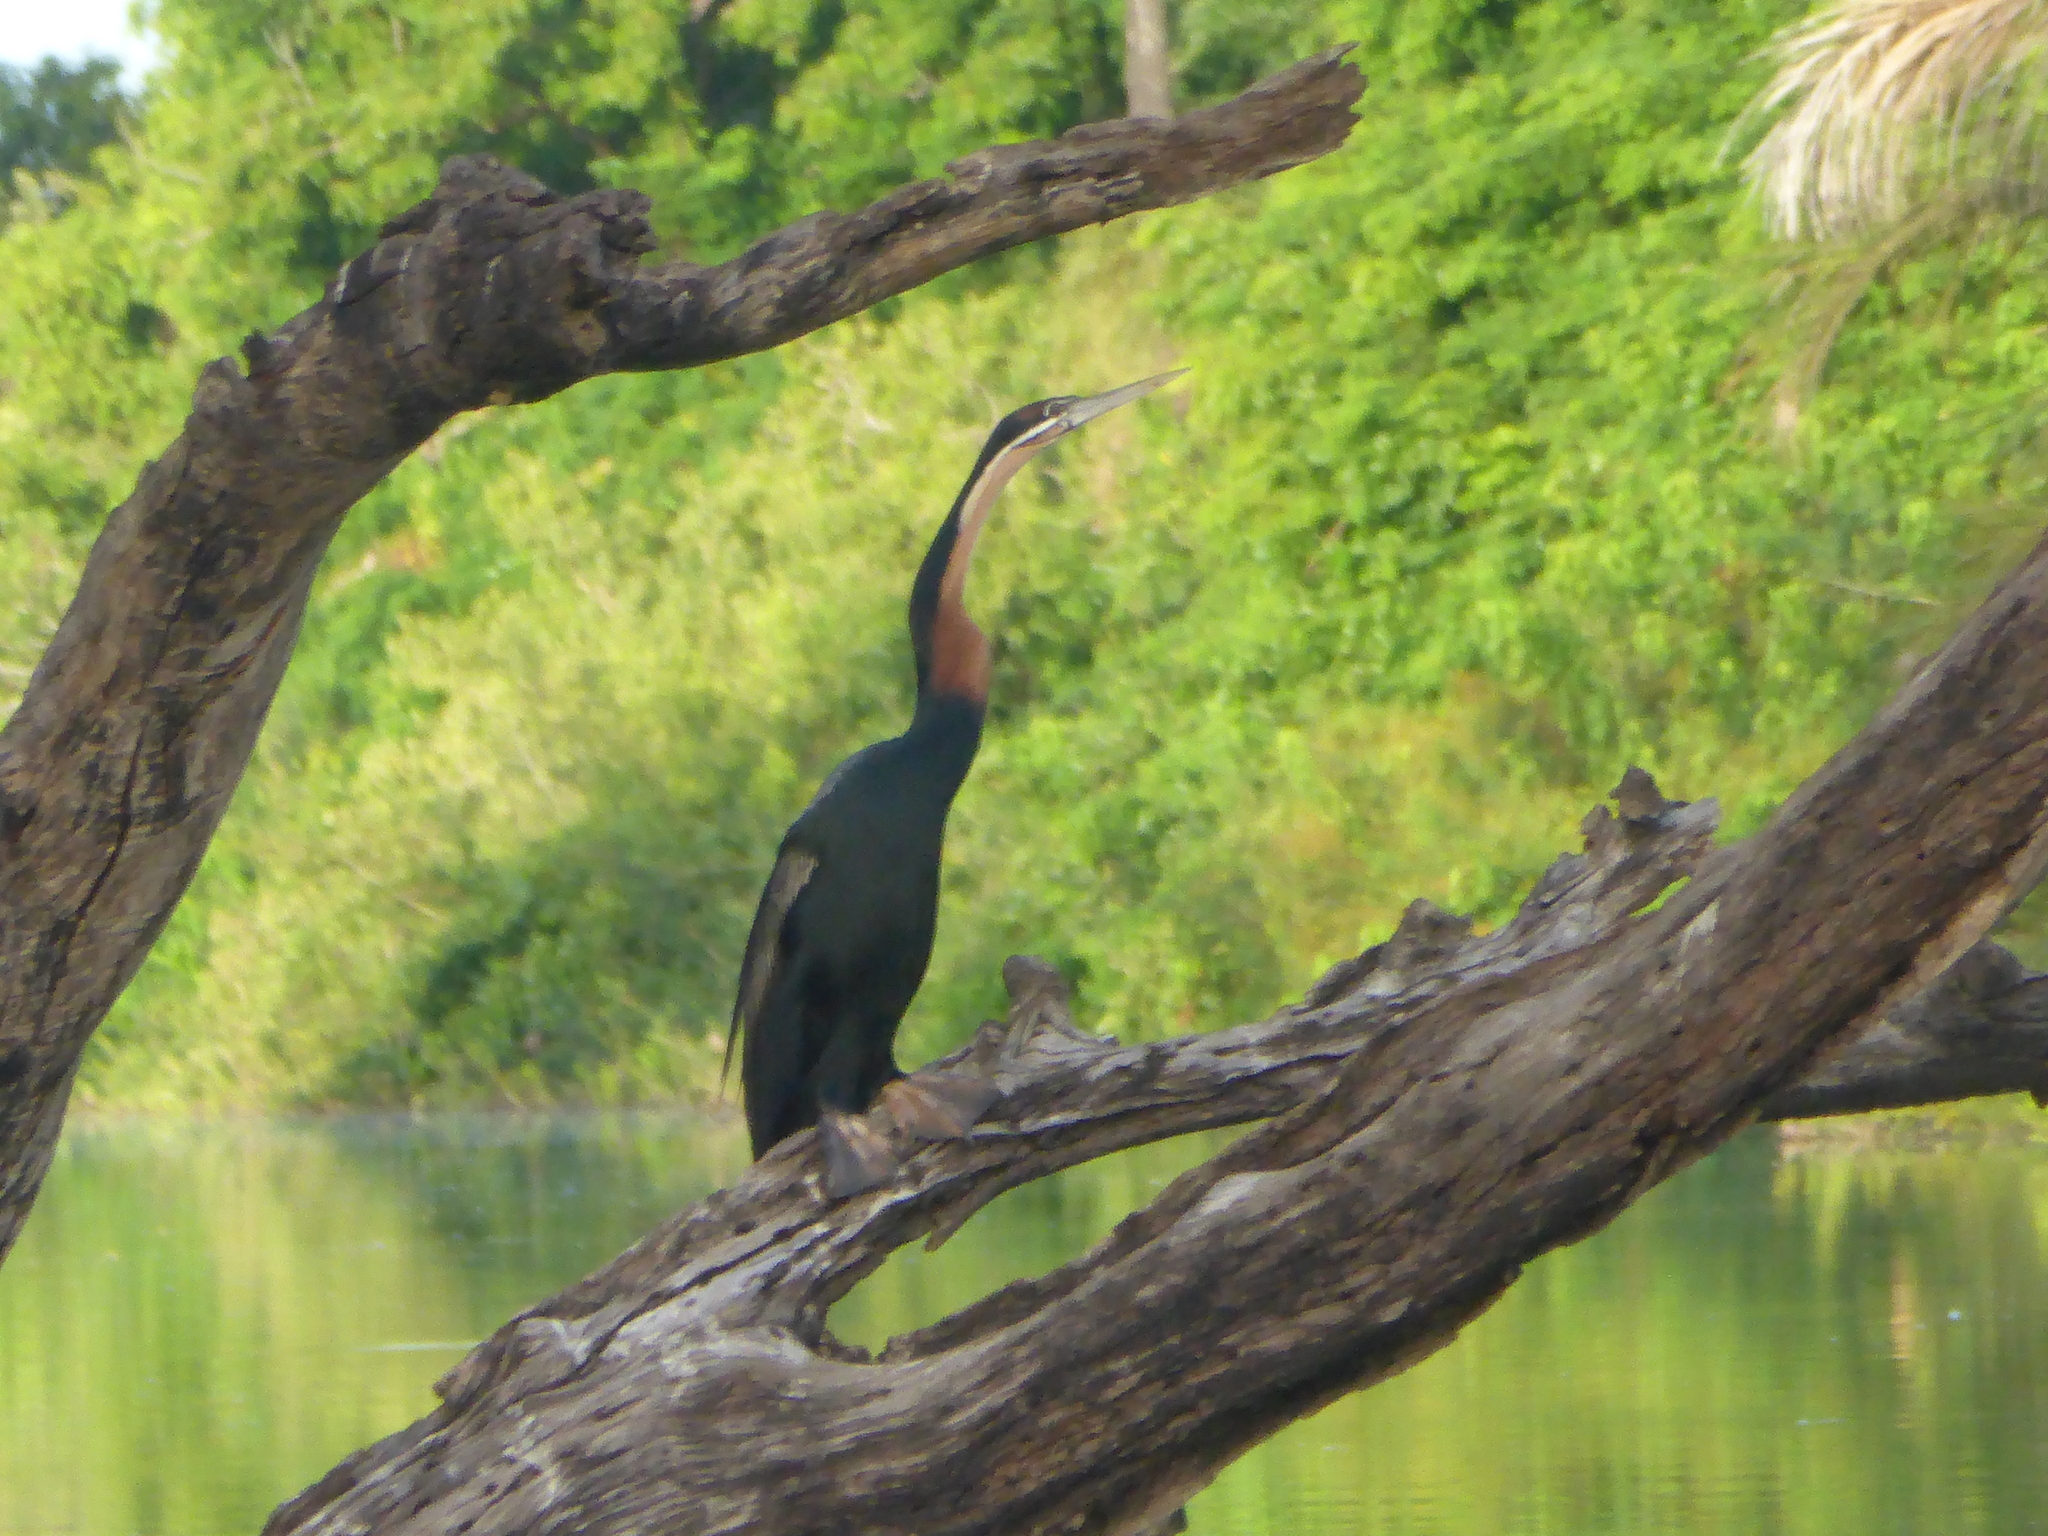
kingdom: Animalia
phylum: Chordata
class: Aves
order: Suliformes
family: Anhingidae
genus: Anhinga
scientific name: Anhinga rufa
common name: African darter
